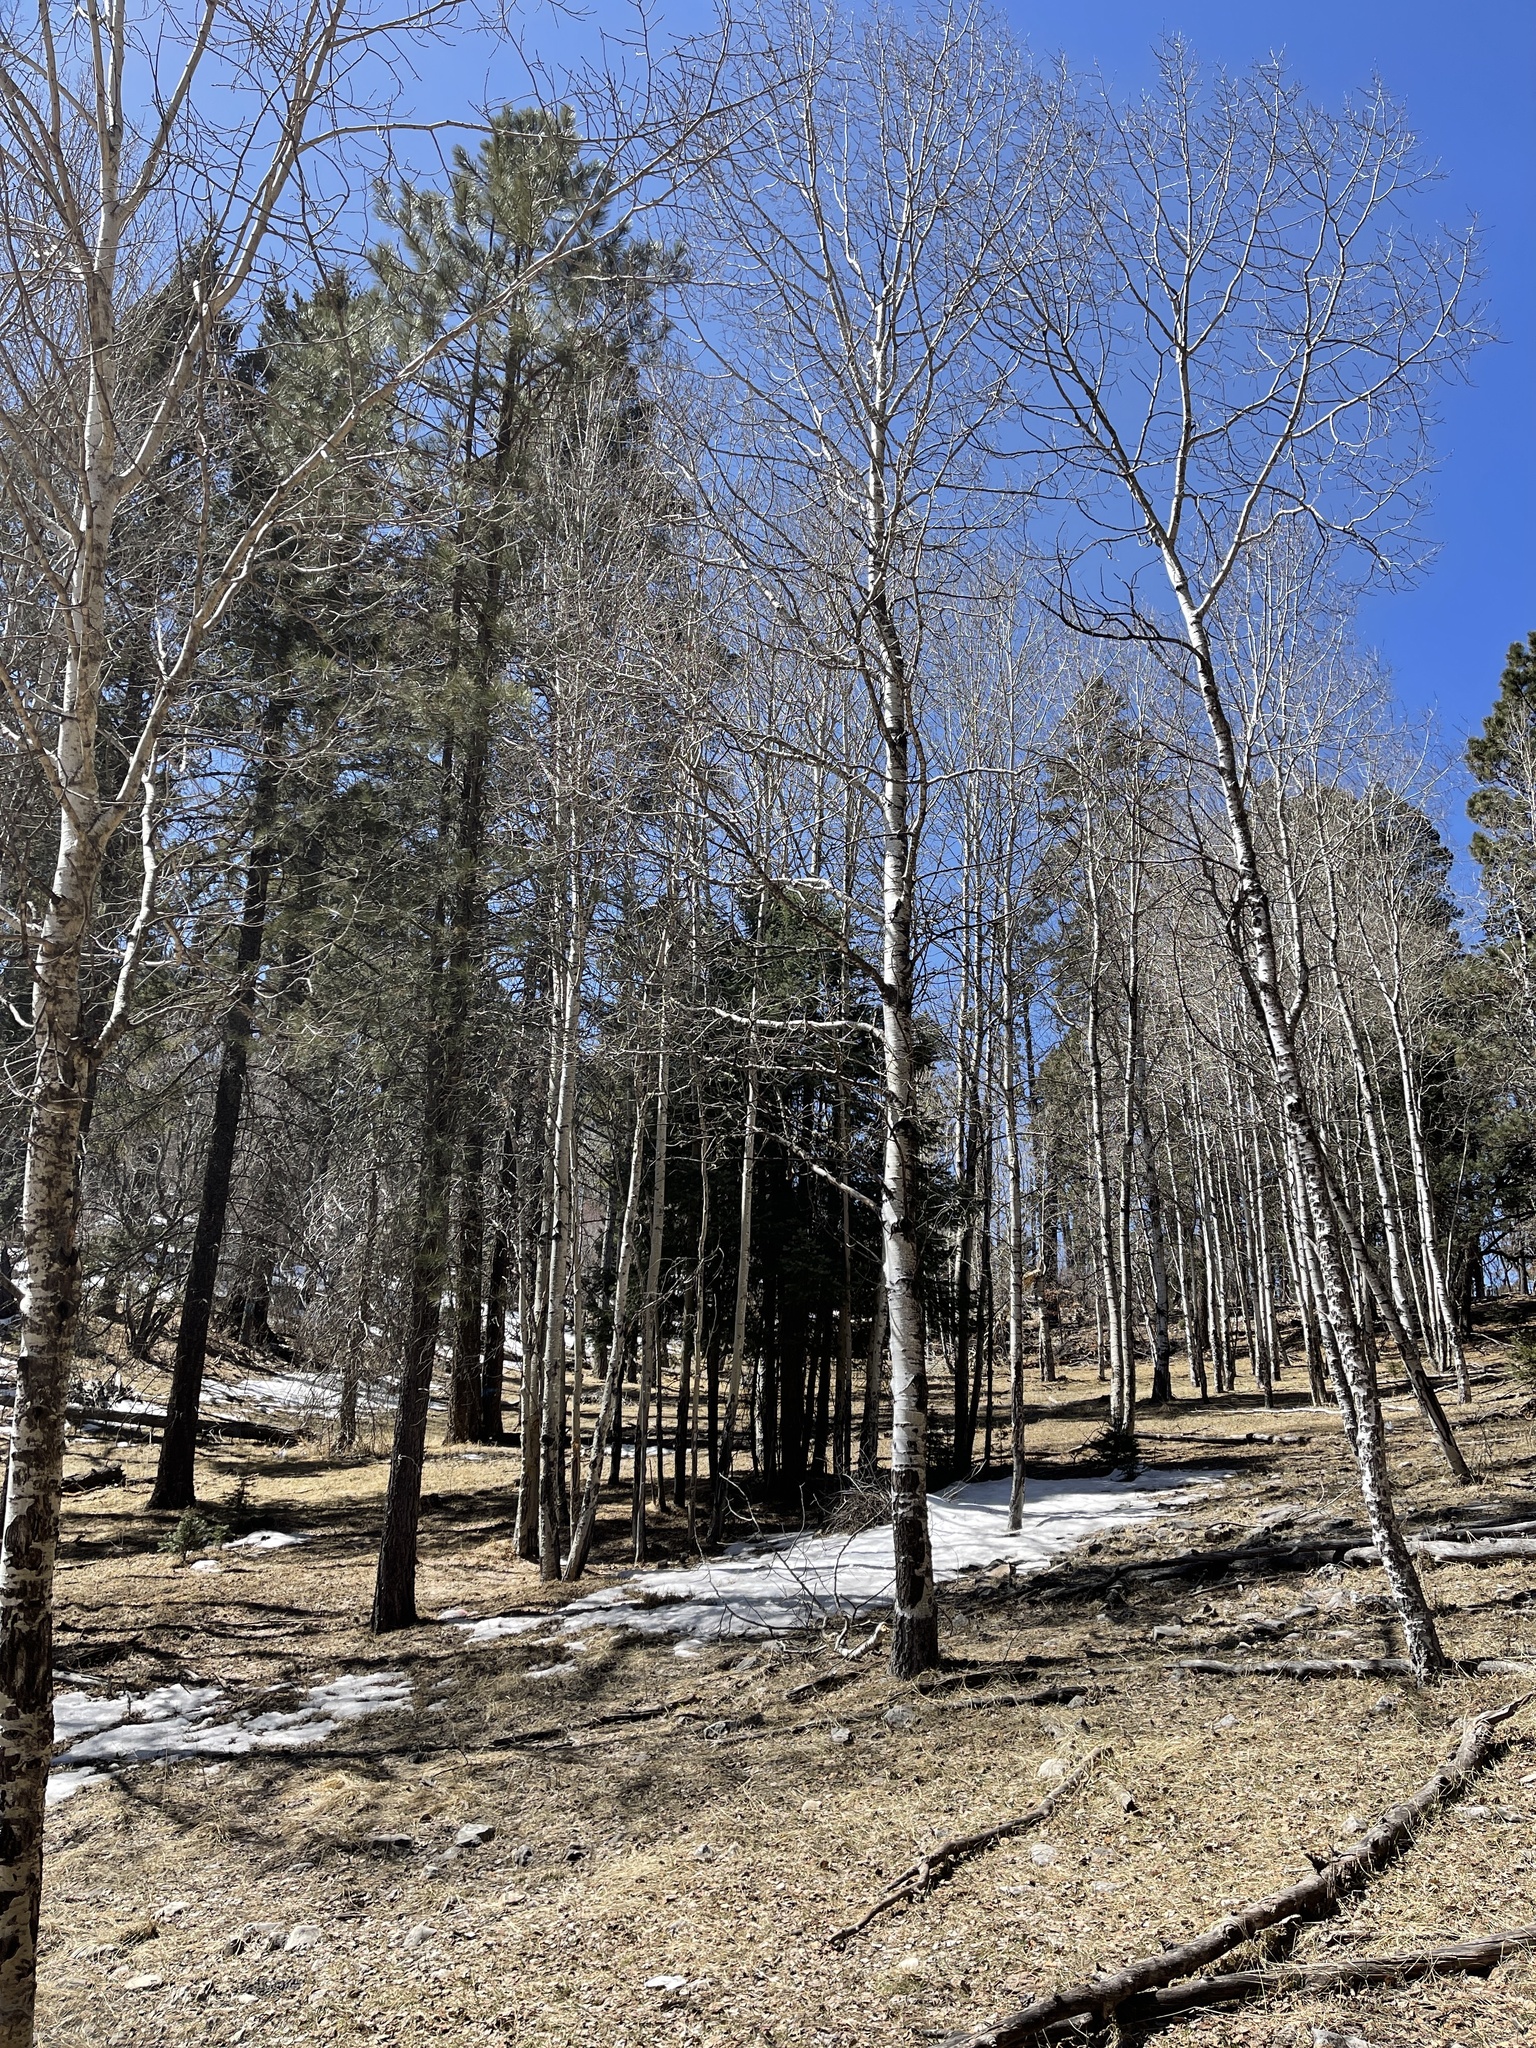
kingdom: Plantae
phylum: Tracheophyta
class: Magnoliopsida
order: Malpighiales
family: Salicaceae
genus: Populus
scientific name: Populus tremuloides
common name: Quaking aspen
